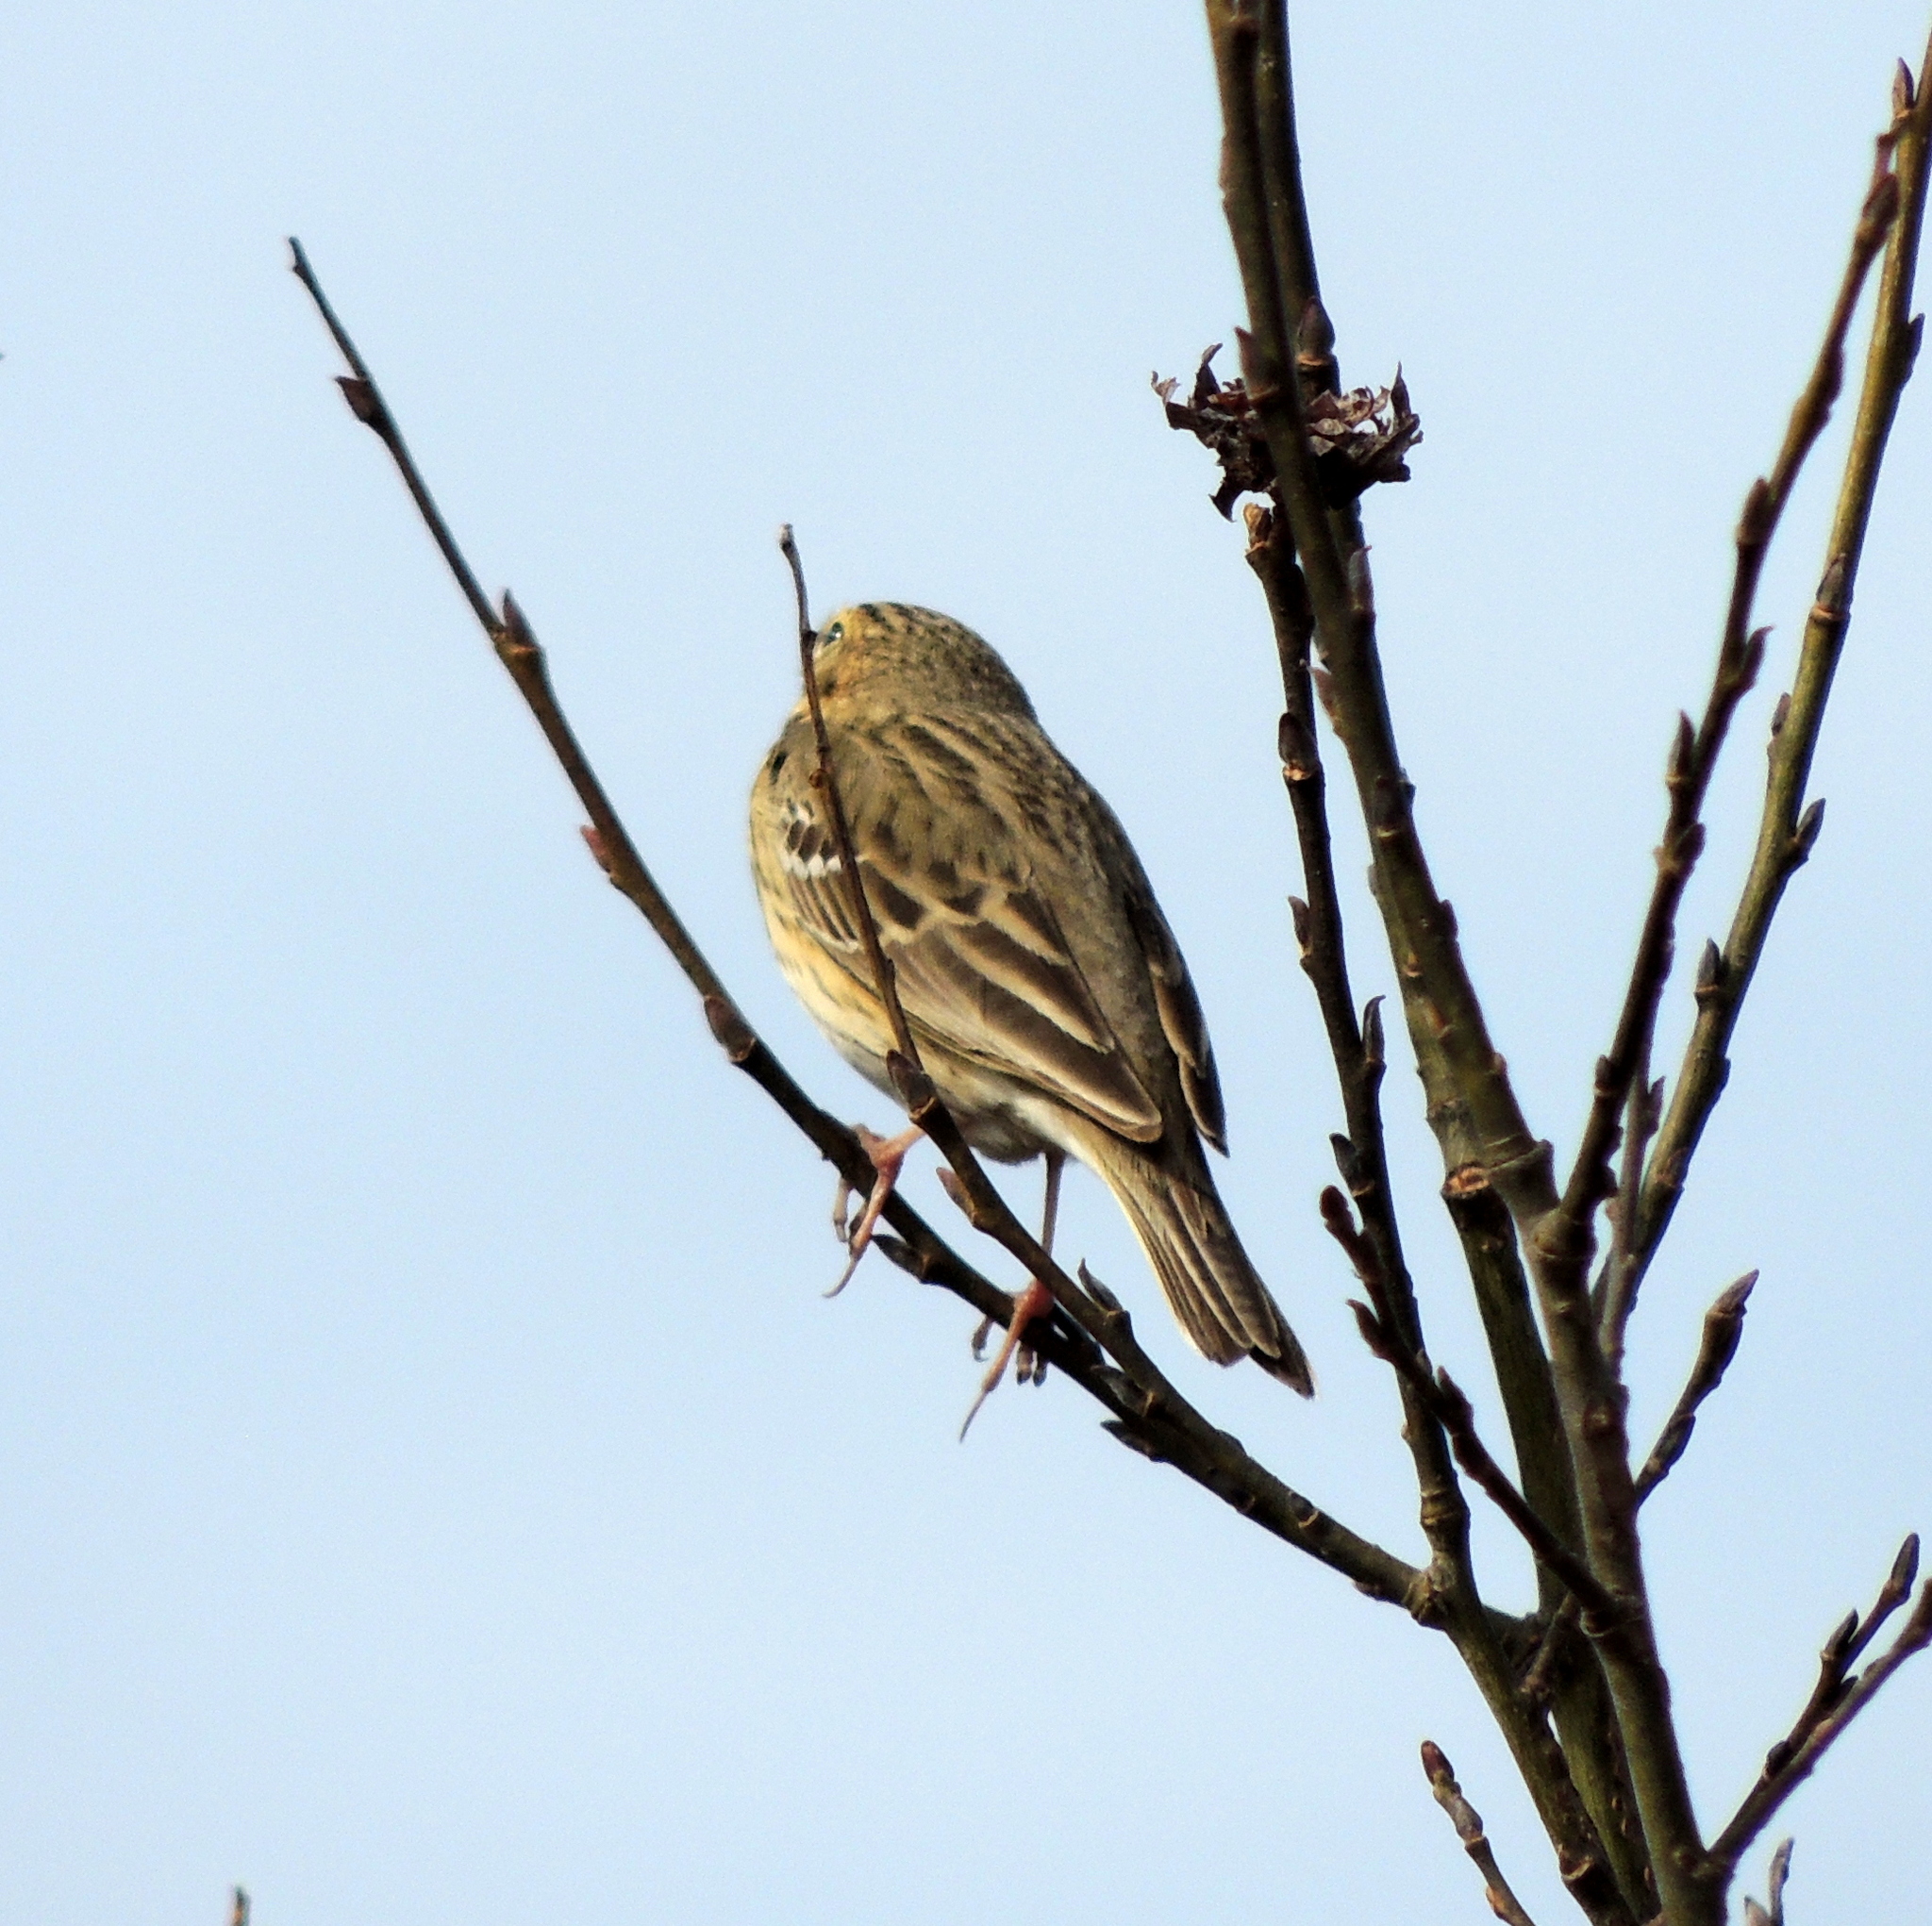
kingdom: Animalia
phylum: Chordata
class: Aves
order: Passeriformes
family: Motacillidae
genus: Anthus
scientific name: Anthus trivialis
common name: Tree pipit
